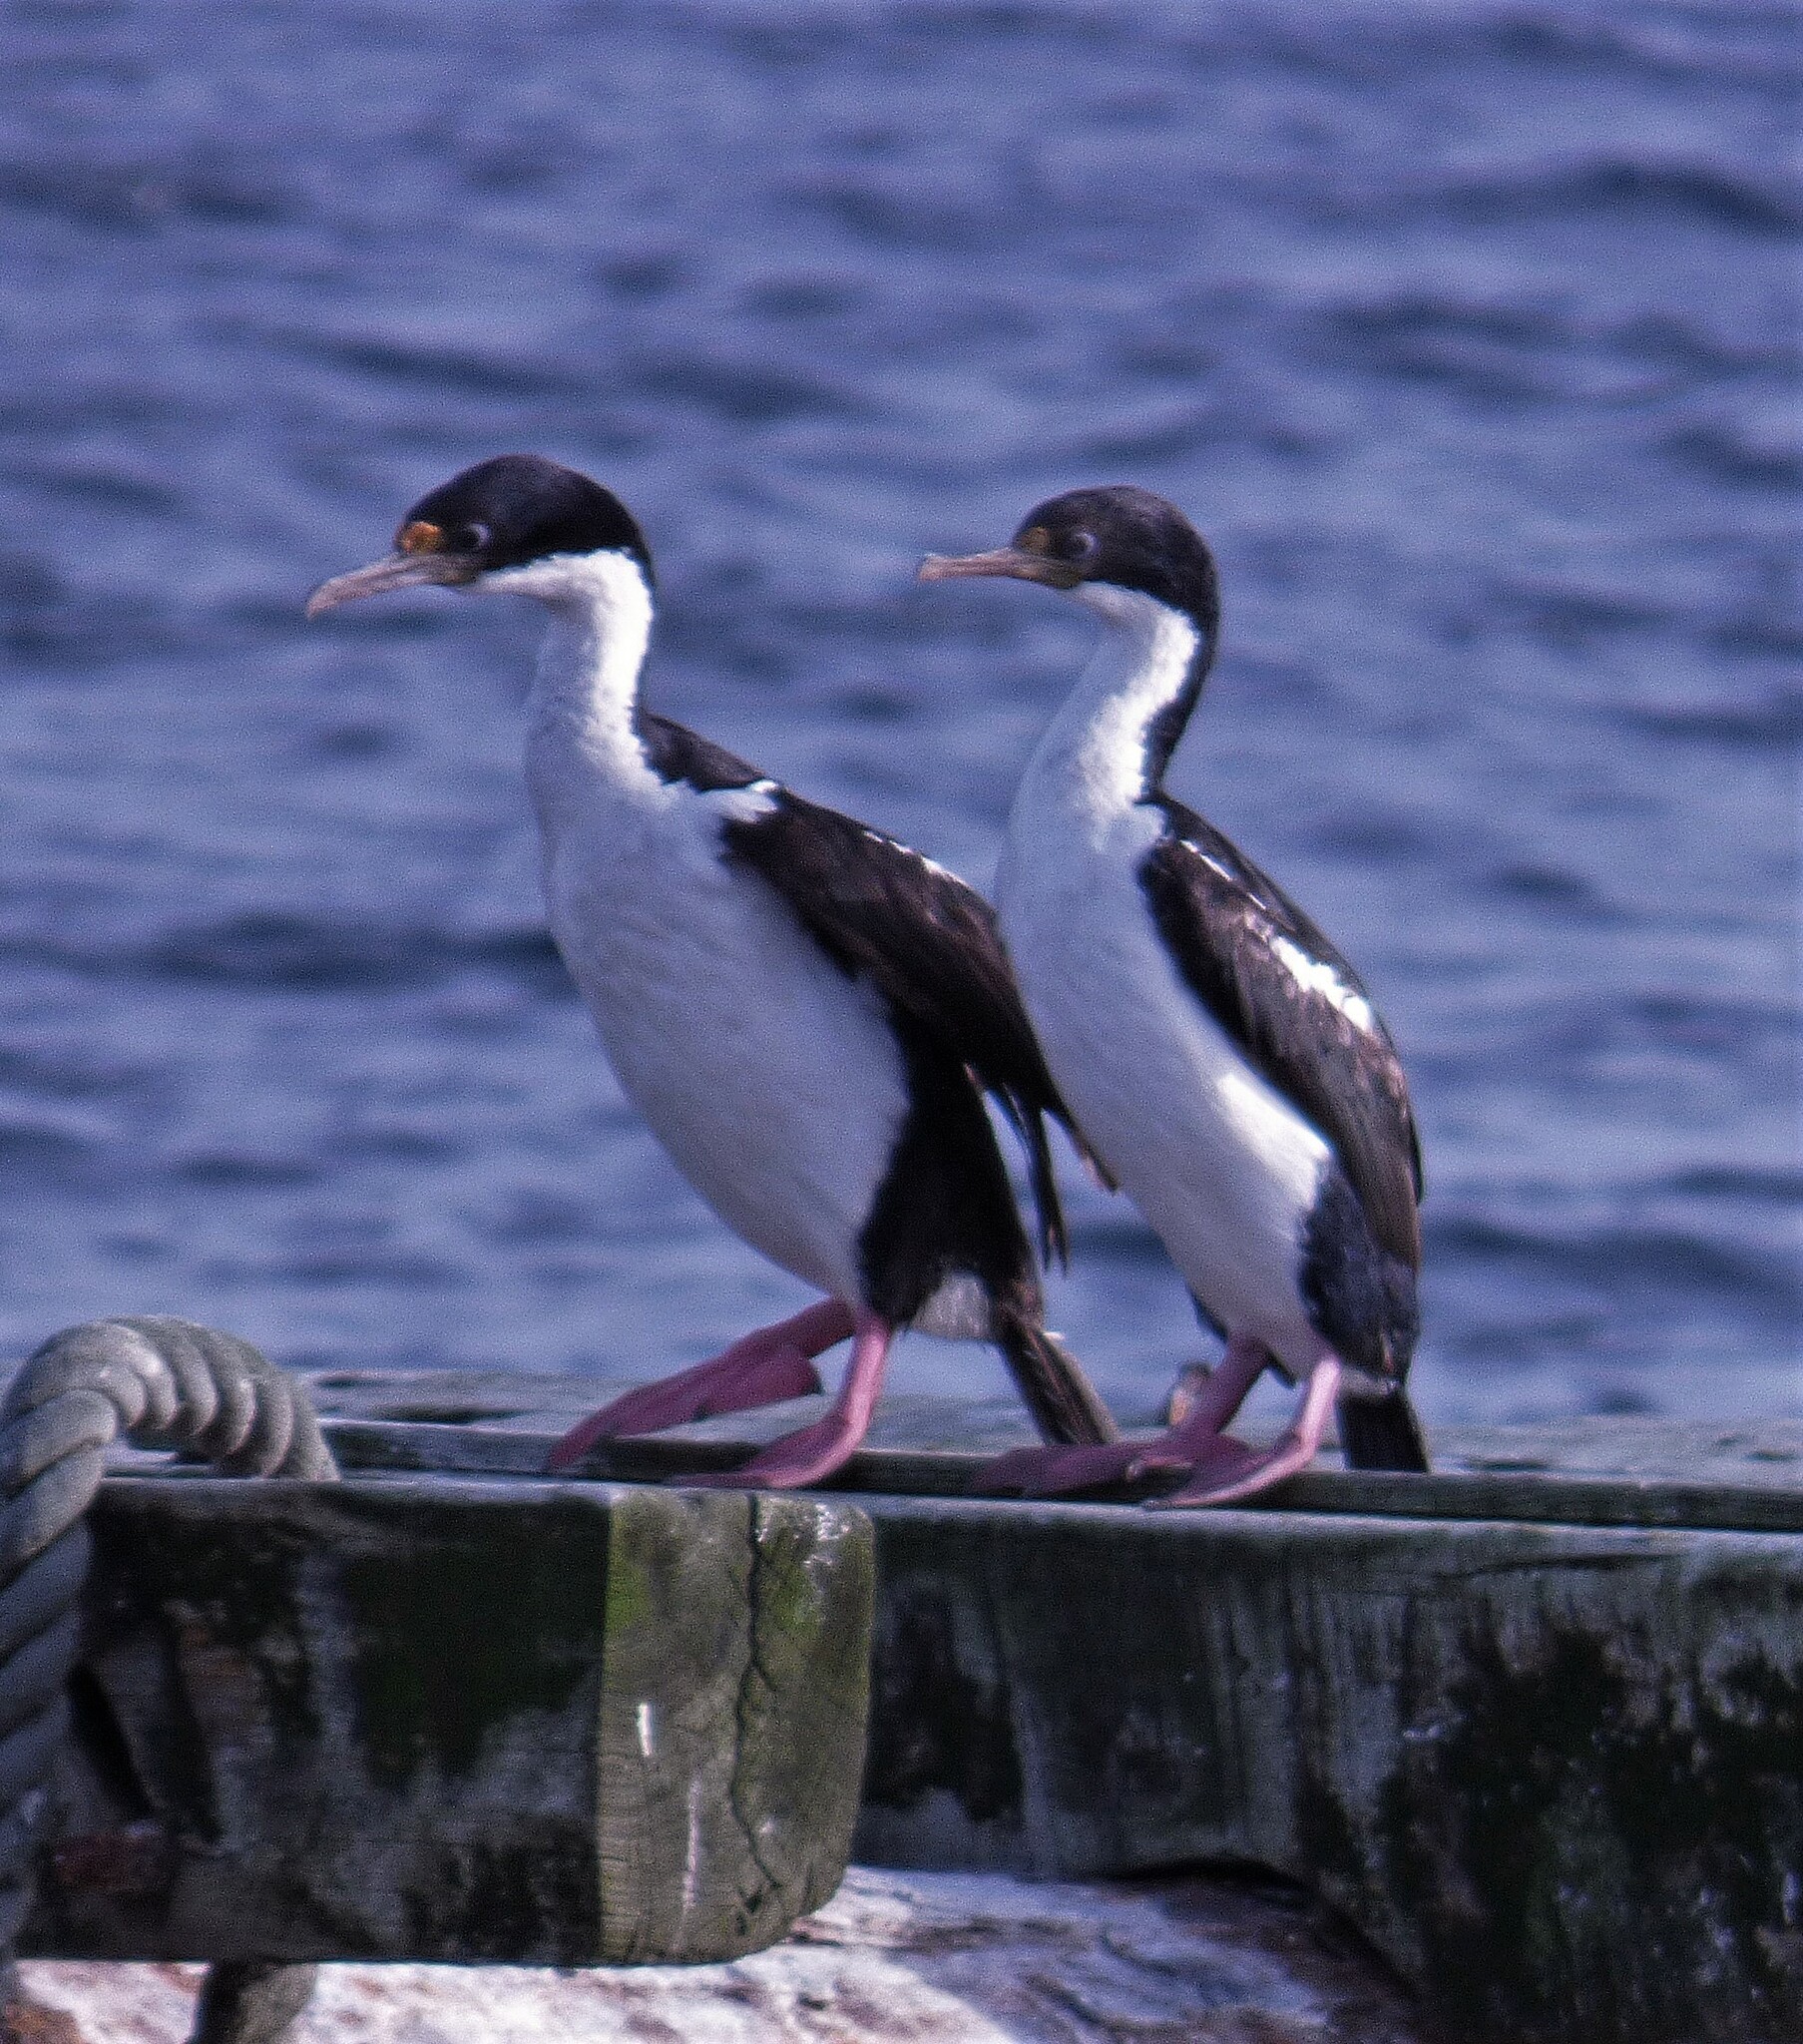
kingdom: Animalia
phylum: Chordata
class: Aves
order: Suliformes
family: Phalacrocoracidae
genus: Leucocarbo
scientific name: Leucocarbo atriceps
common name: Imperial shag
